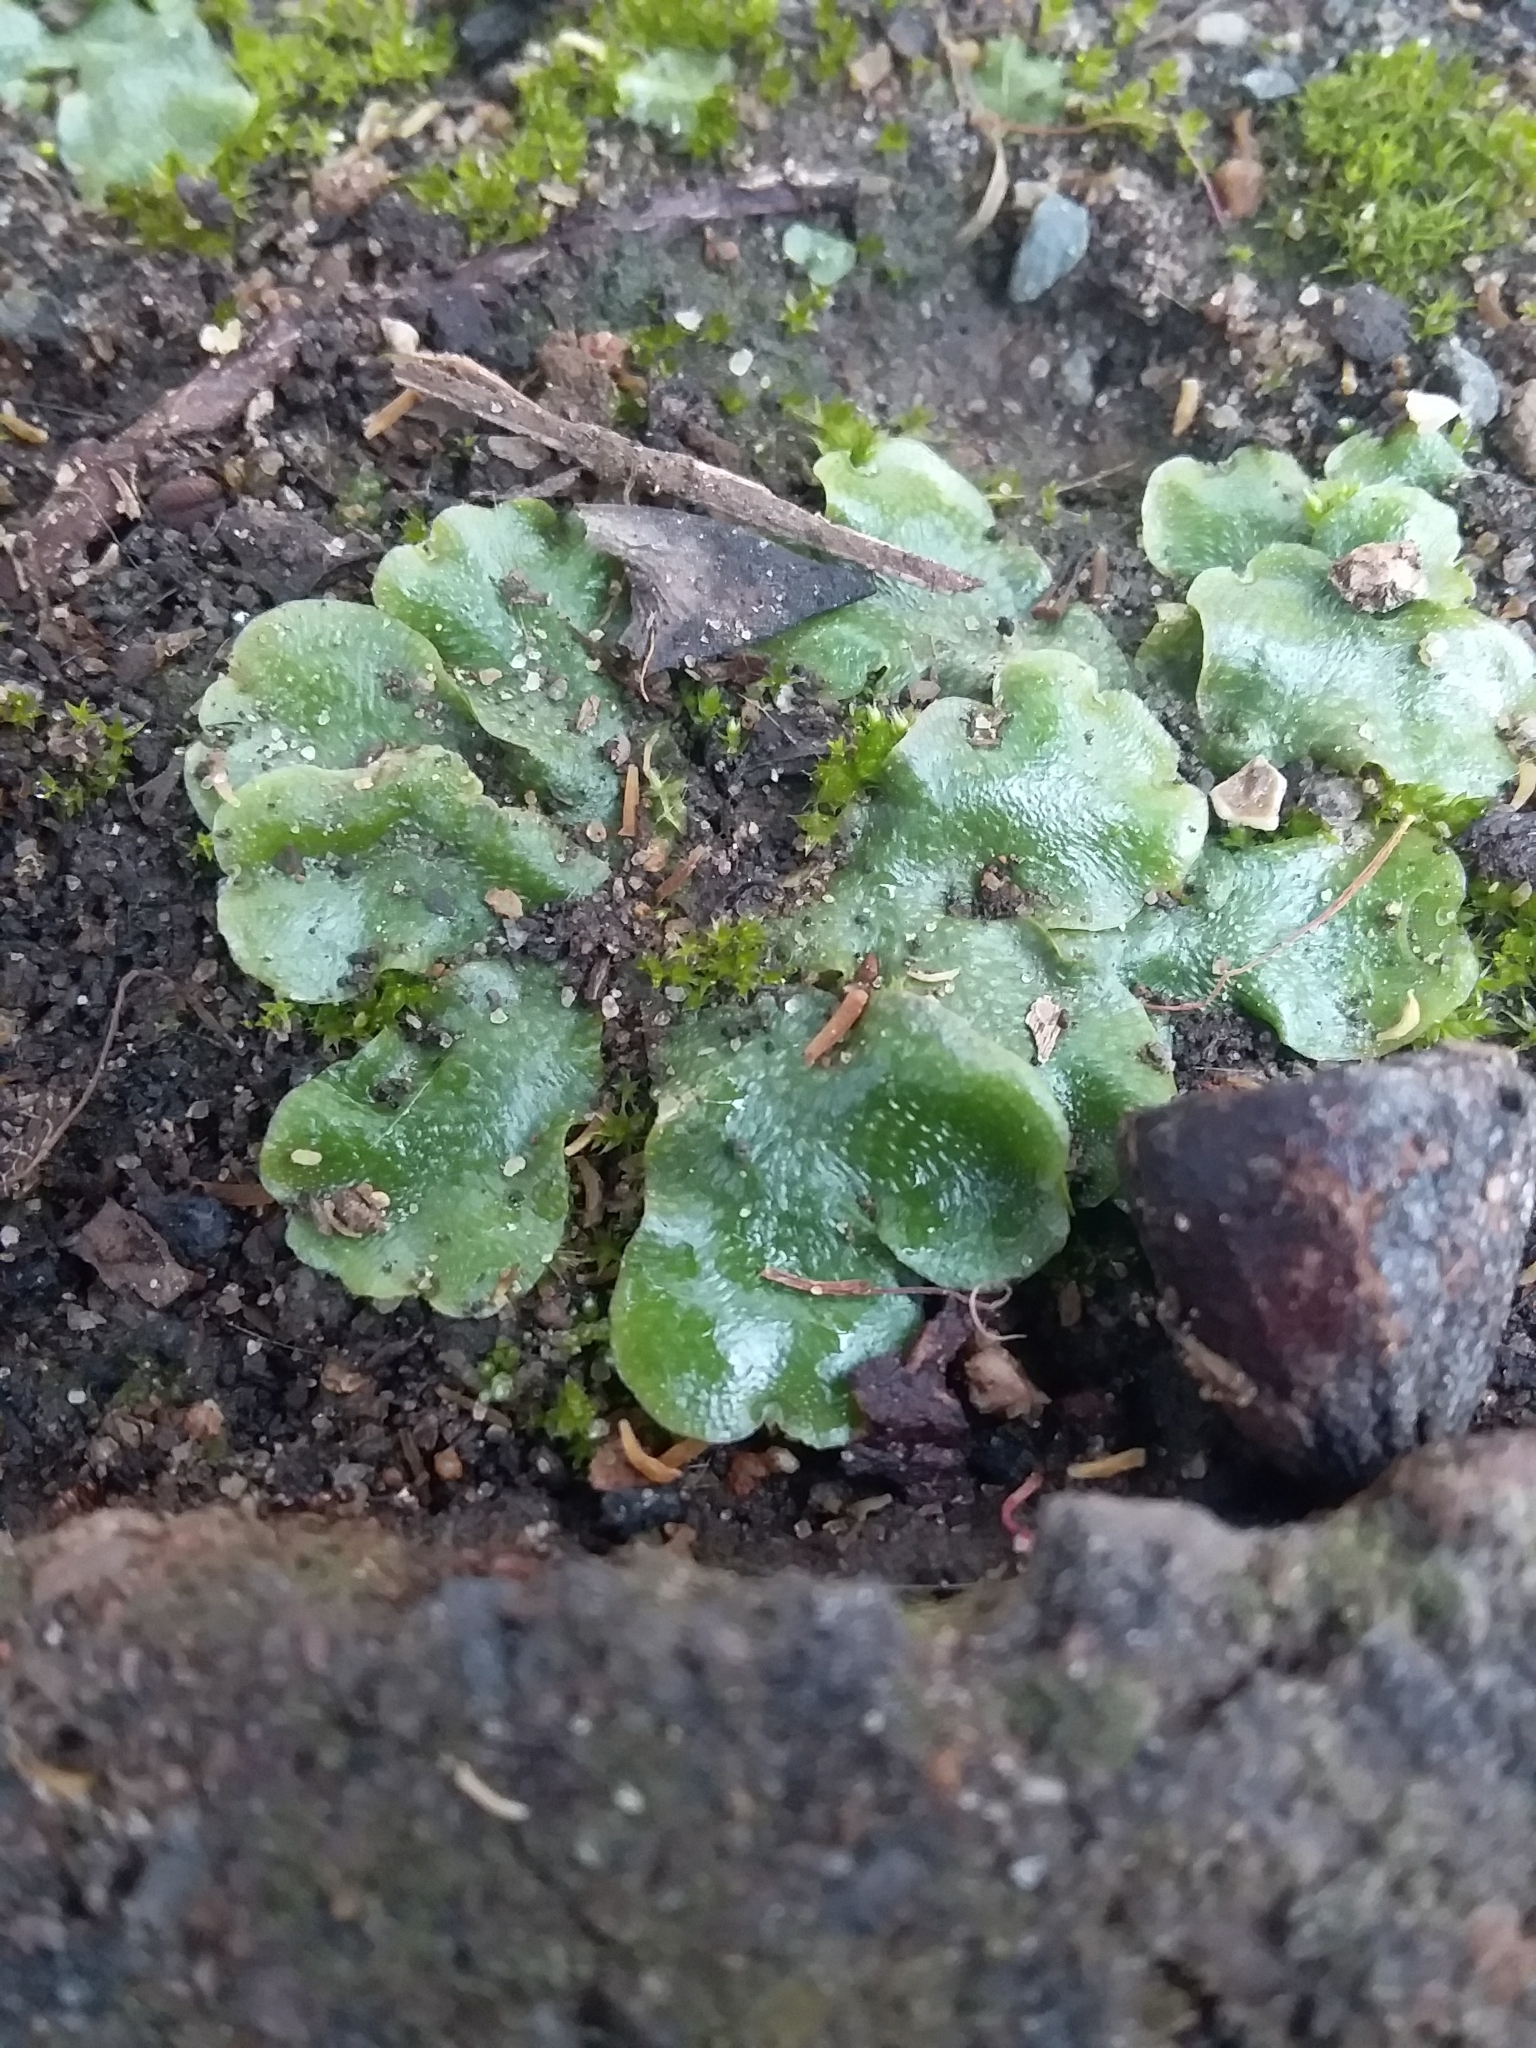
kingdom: Plantae
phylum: Marchantiophyta
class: Marchantiopsida
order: Lunulariales
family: Lunulariaceae
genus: Lunularia
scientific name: Lunularia cruciata
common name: Crescent-cup liverwort
